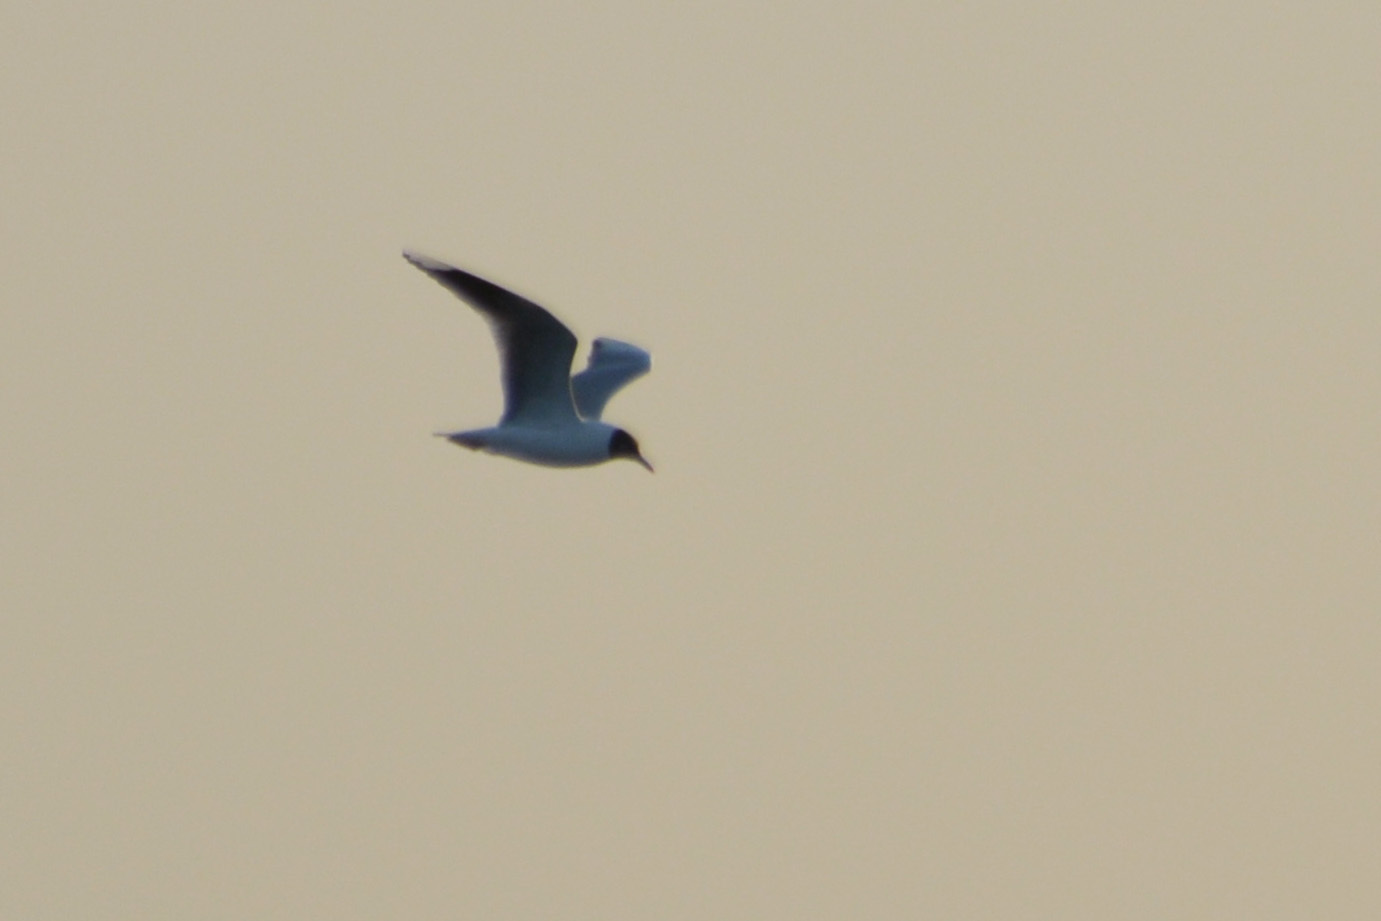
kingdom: Animalia
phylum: Chordata
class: Aves
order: Charadriiformes
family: Laridae
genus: Chroicocephalus
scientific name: Chroicocephalus maculipennis
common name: Brown-hooded gull
